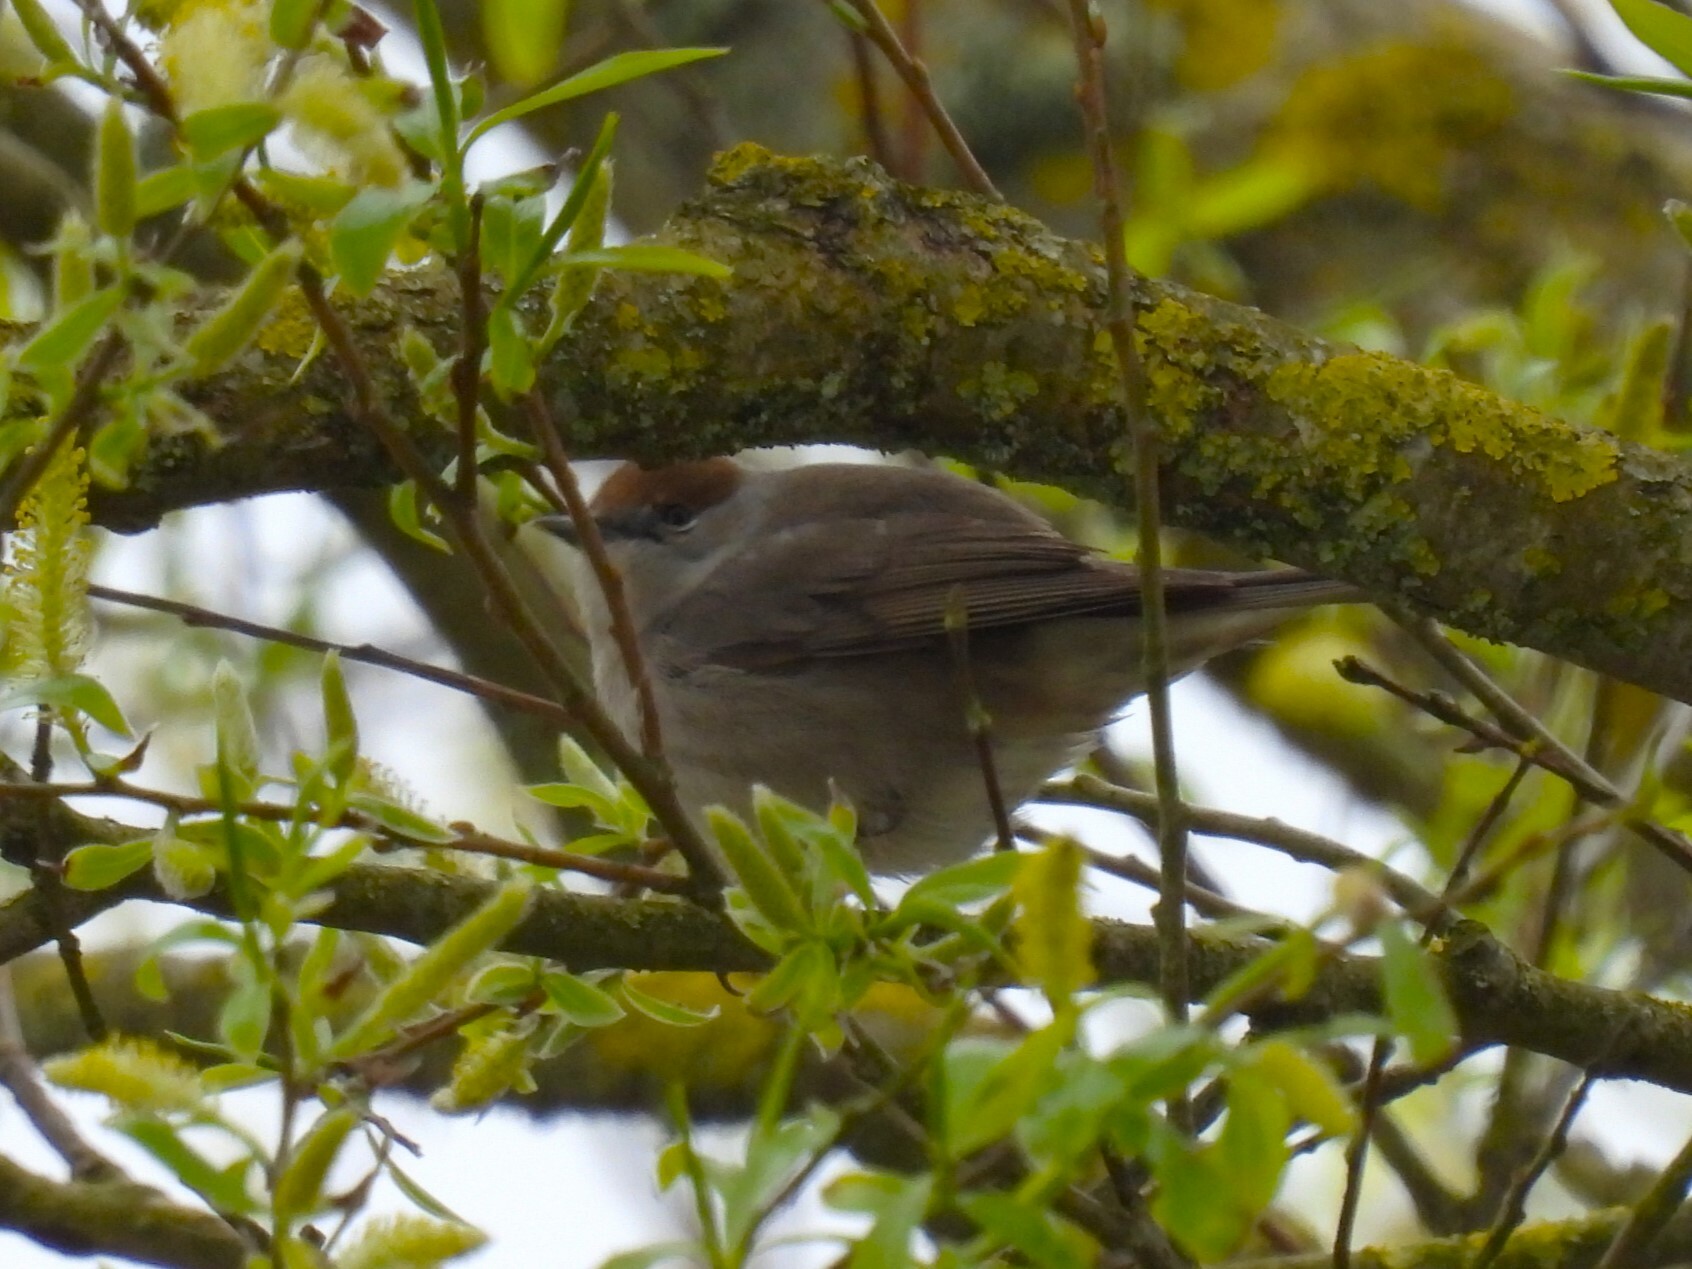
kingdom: Animalia
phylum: Chordata
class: Aves
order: Passeriformes
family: Sylviidae
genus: Sylvia
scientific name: Sylvia atricapilla
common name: Eurasian blackcap
